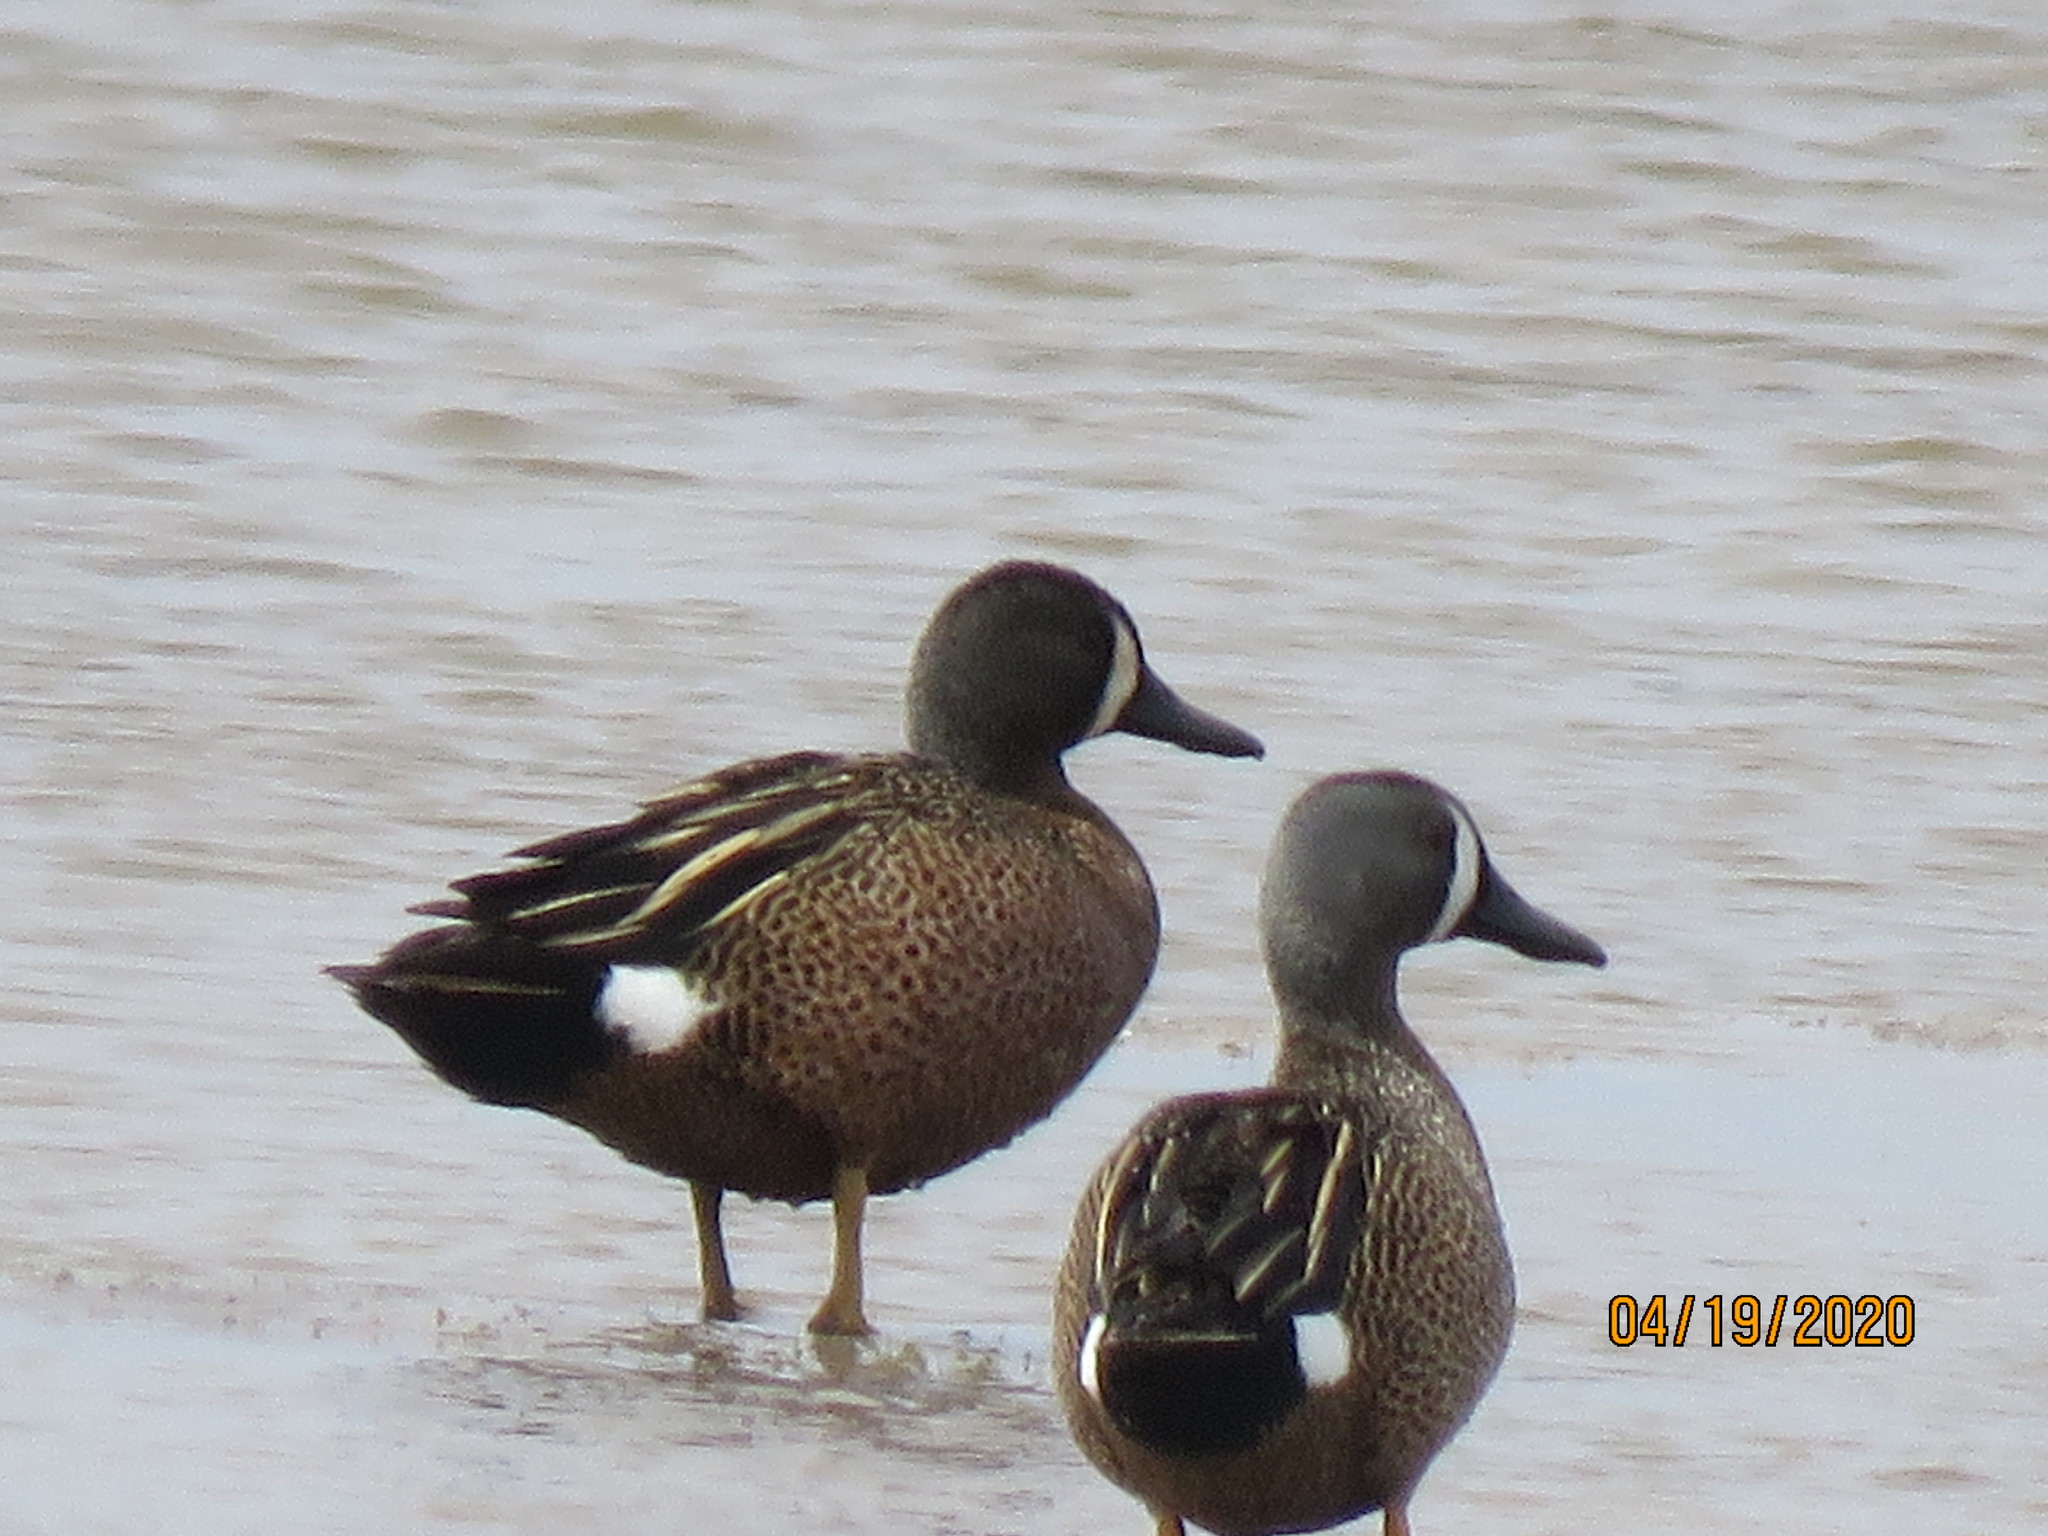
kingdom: Animalia
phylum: Chordata
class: Aves
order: Anseriformes
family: Anatidae
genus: Spatula
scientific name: Spatula discors
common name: Blue-winged teal
